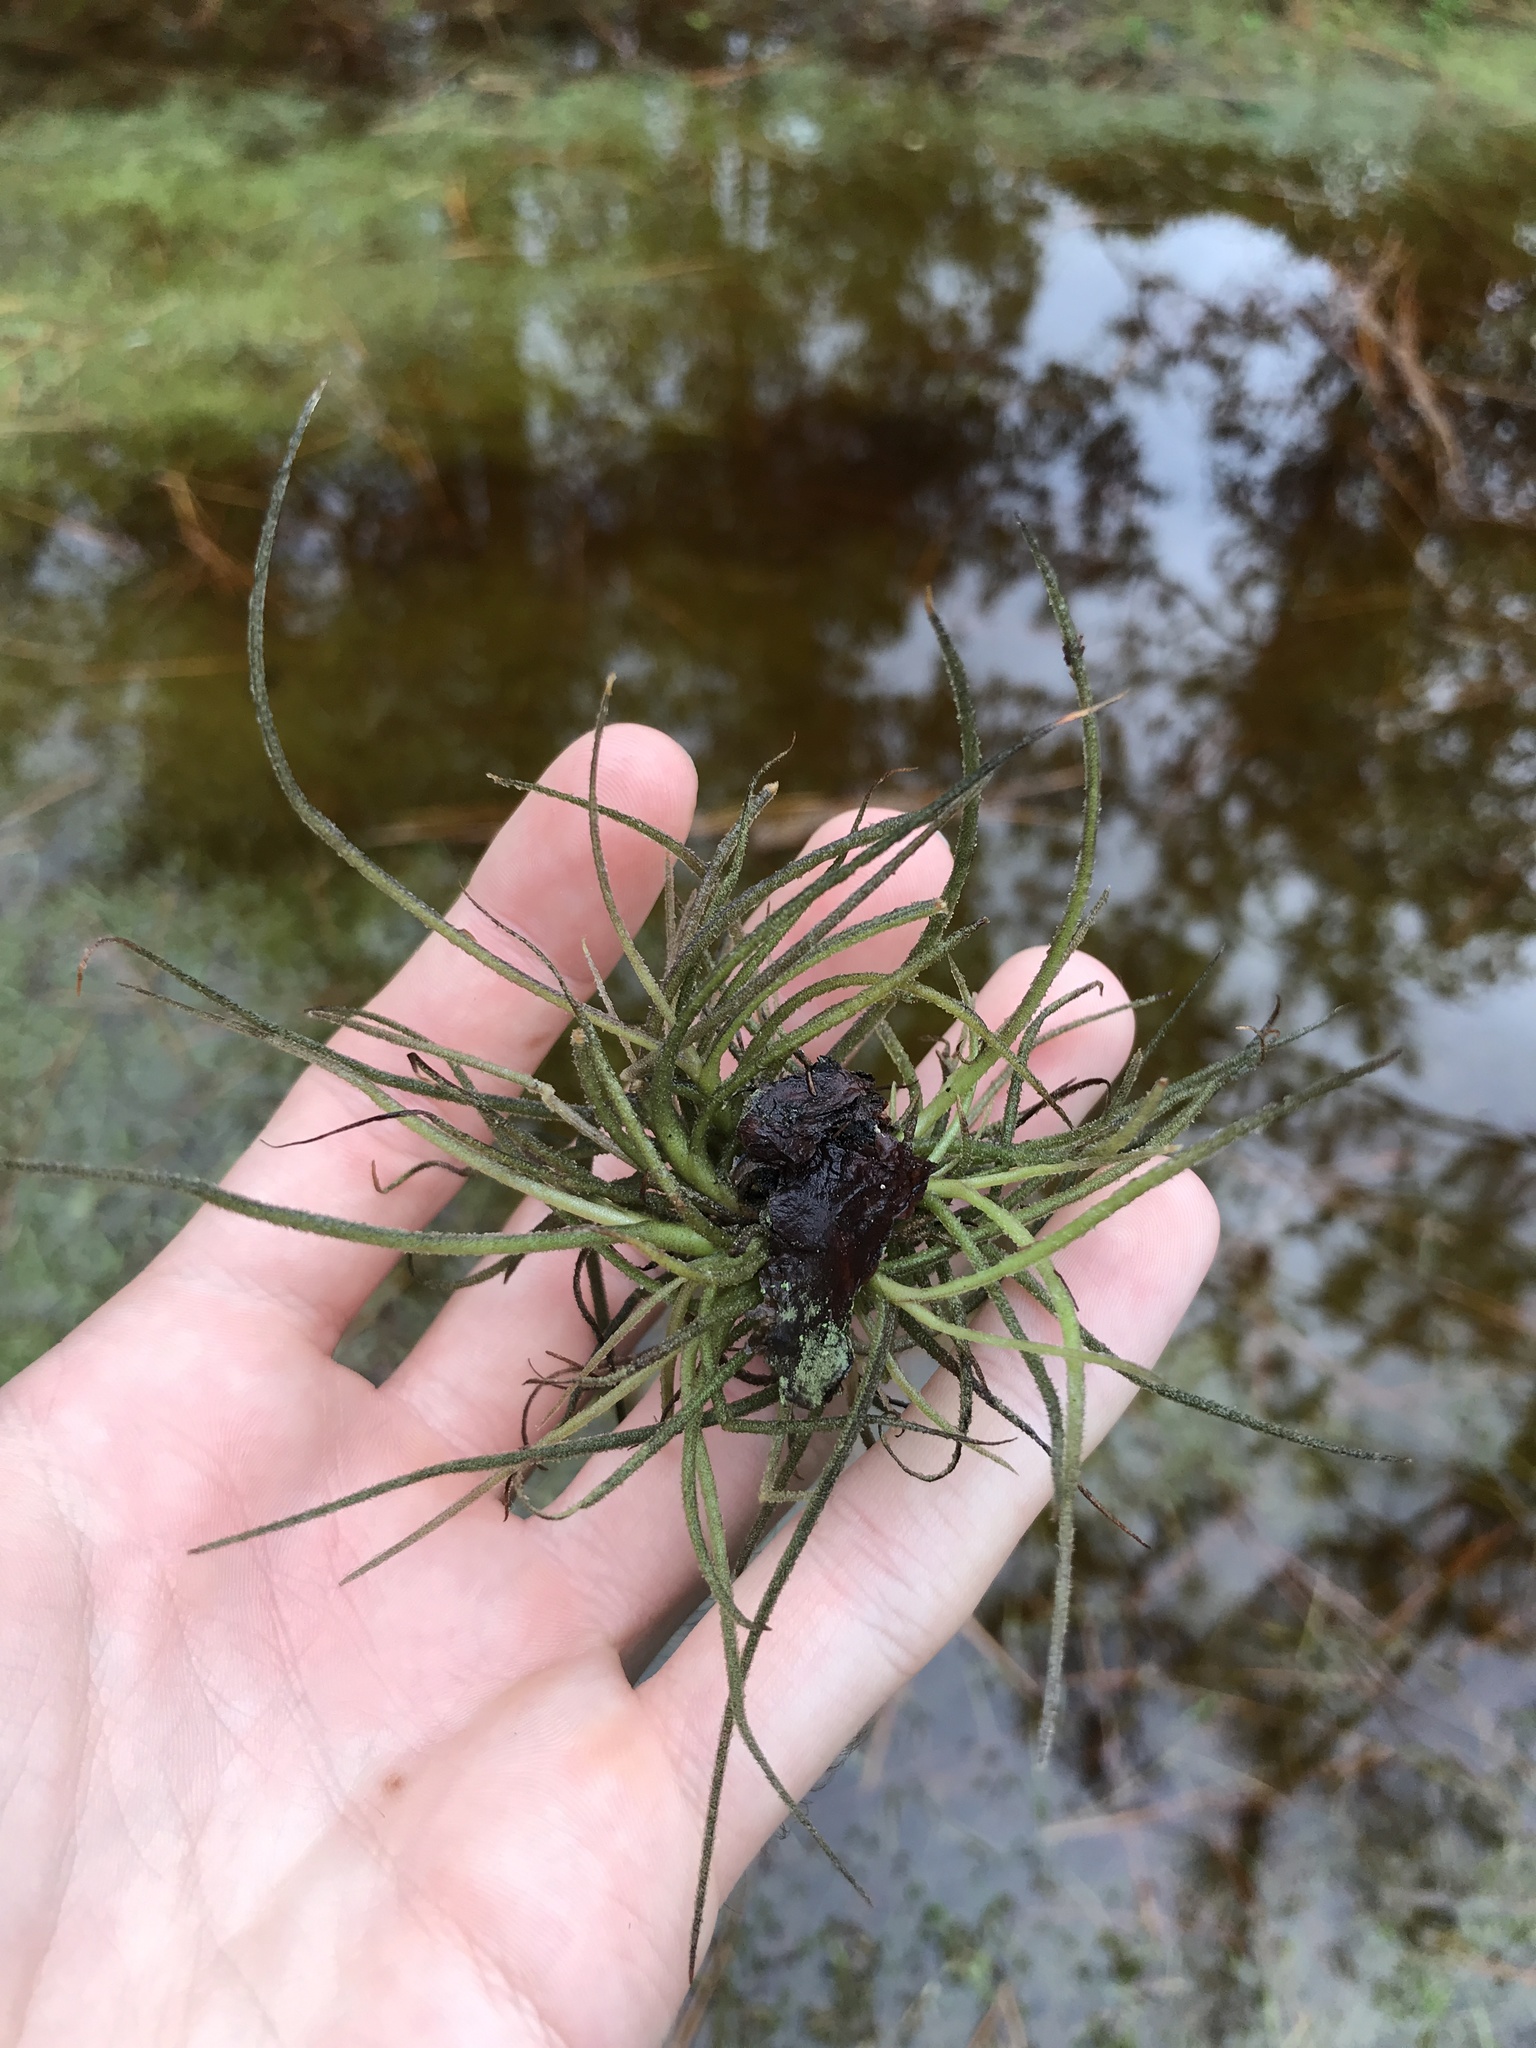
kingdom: Plantae
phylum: Tracheophyta
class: Liliopsida
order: Poales
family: Bromeliaceae
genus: Tillandsia
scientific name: Tillandsia recurvata
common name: Small ballmoss
